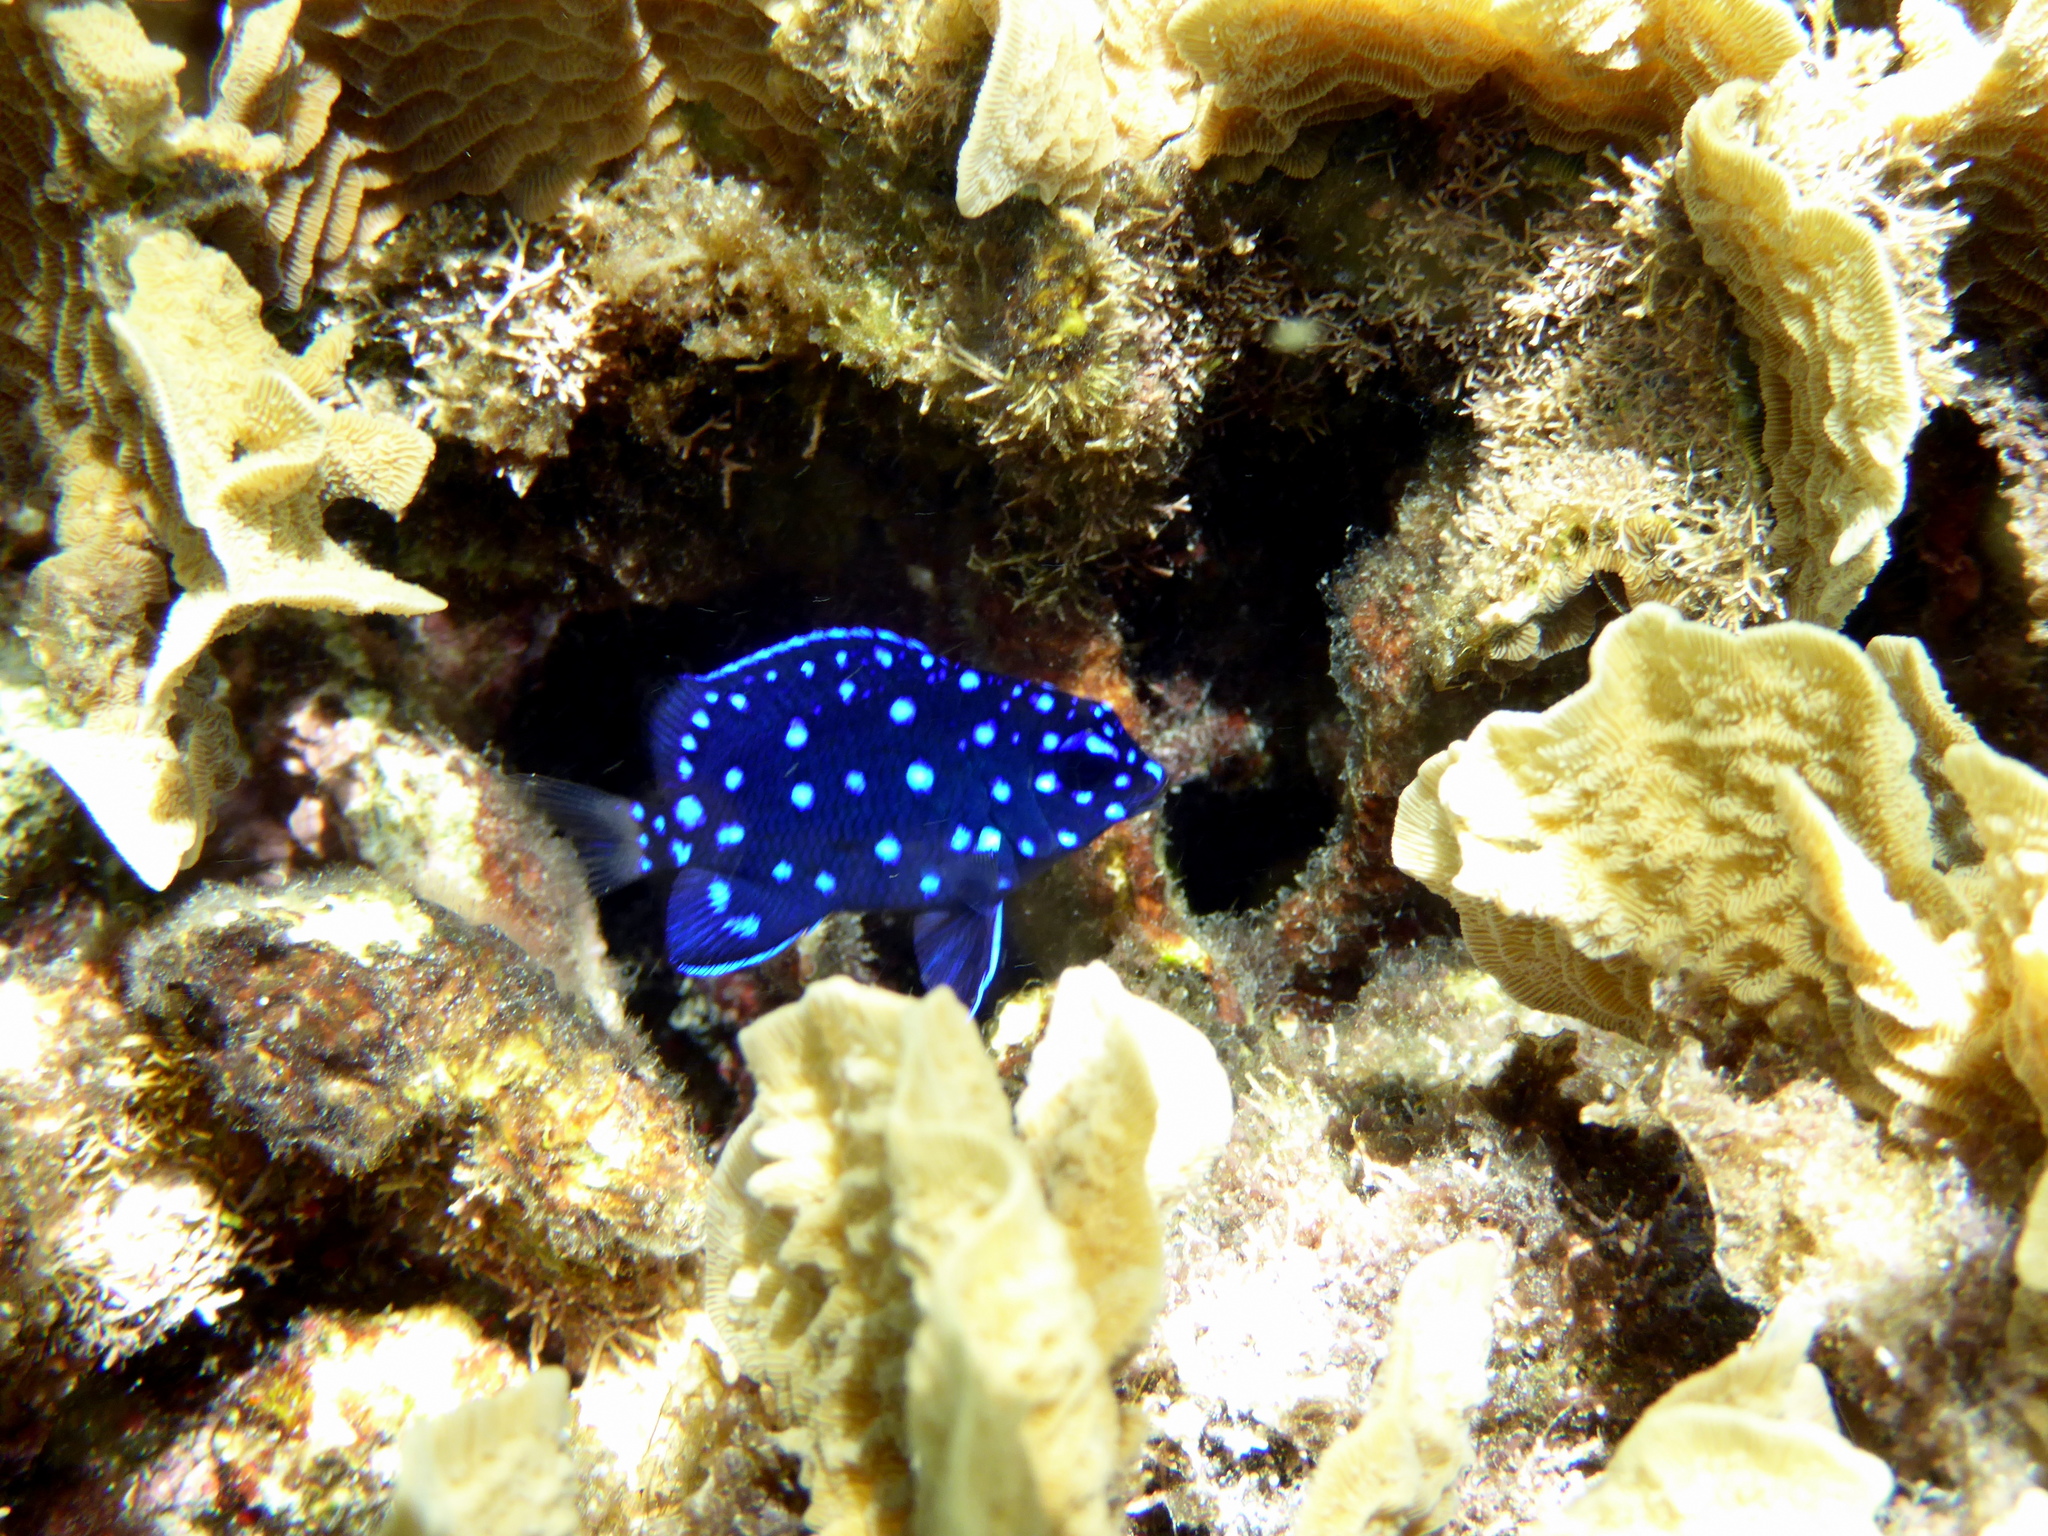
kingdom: Animalia
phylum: Chordata
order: Perciformes
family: Pomacentridae
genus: Microspathodon
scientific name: Microspathodon chrysurus
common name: Yellowtail damselfish
